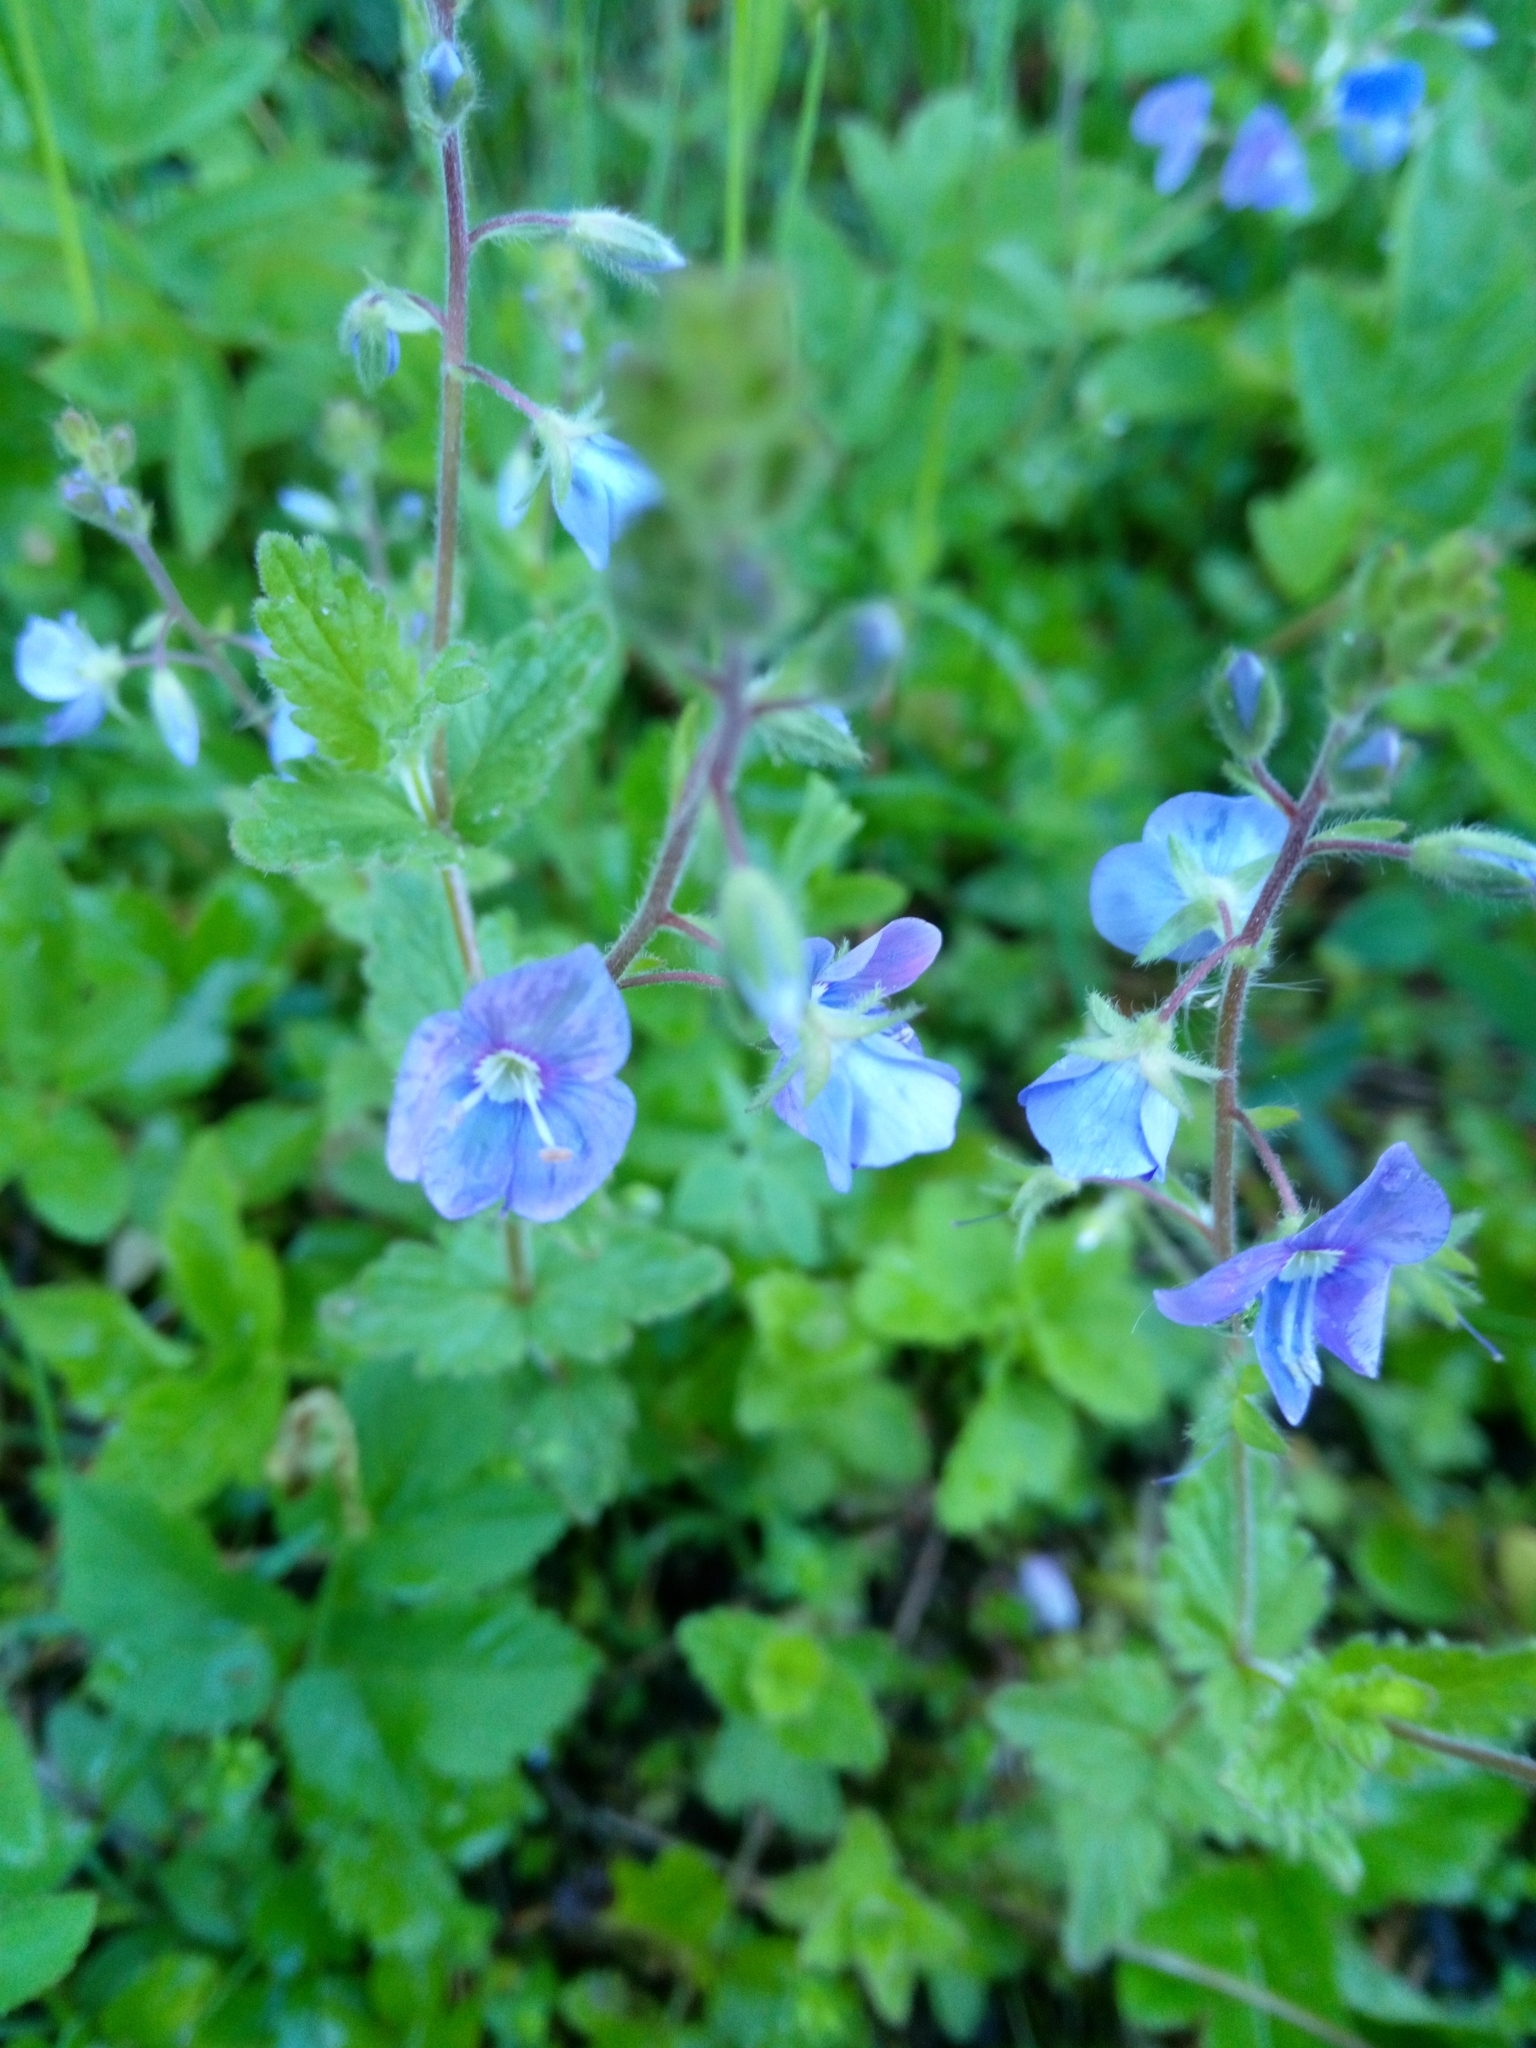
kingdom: Plantae
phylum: Tracheophyta
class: Magnoliopsida
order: Lamiales
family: Plantaginaceae
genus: Veronica
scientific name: Veronica chamaedrys
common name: Germander speedwell
